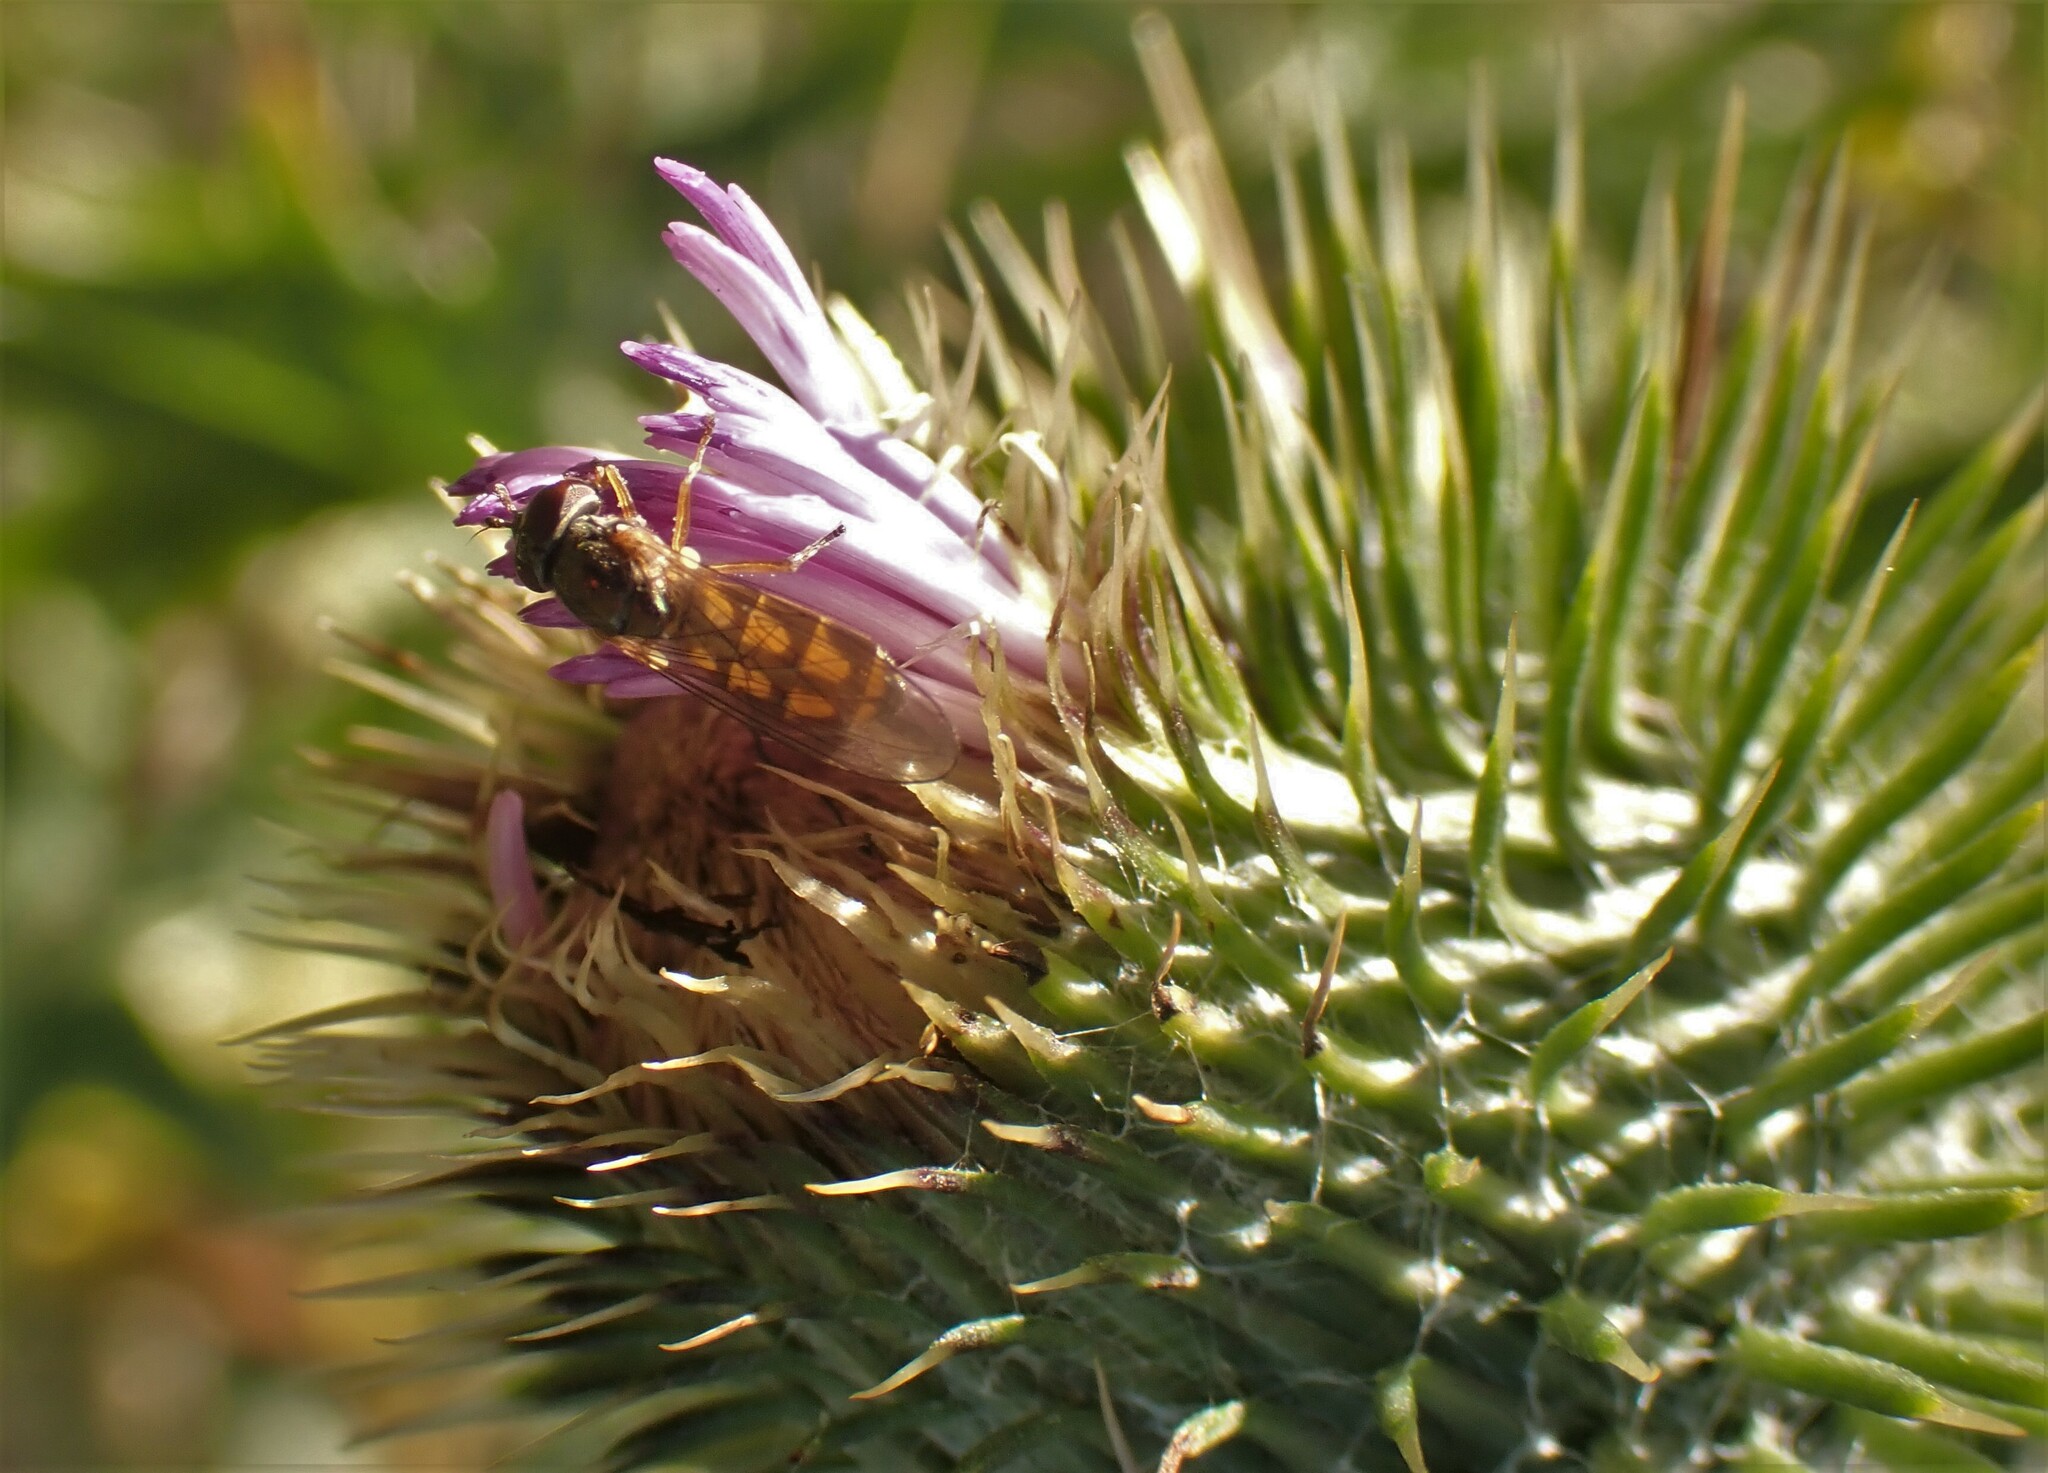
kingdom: Animalia
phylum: Arthropoda
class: Insecta
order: Diptera
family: Syrphidae
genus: Melanostoma
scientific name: Melanostoma fasciatum
